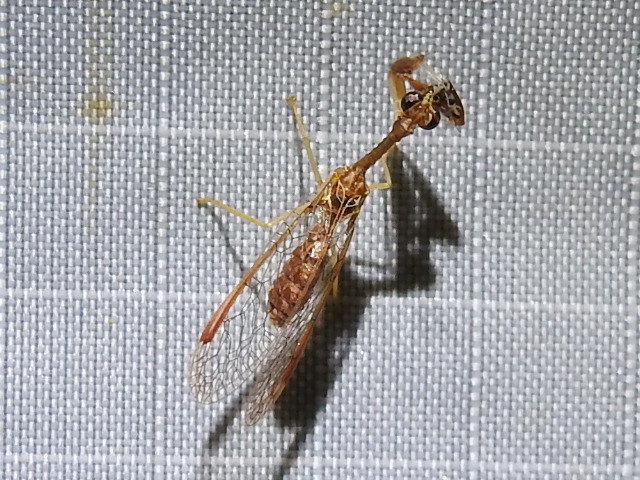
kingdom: Animalia
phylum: Arthropoda
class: Insecta
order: Neuroptera
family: Mantispidae
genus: Dicromantispa
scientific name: Dicromantispa sayi
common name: Say's mantidfly
